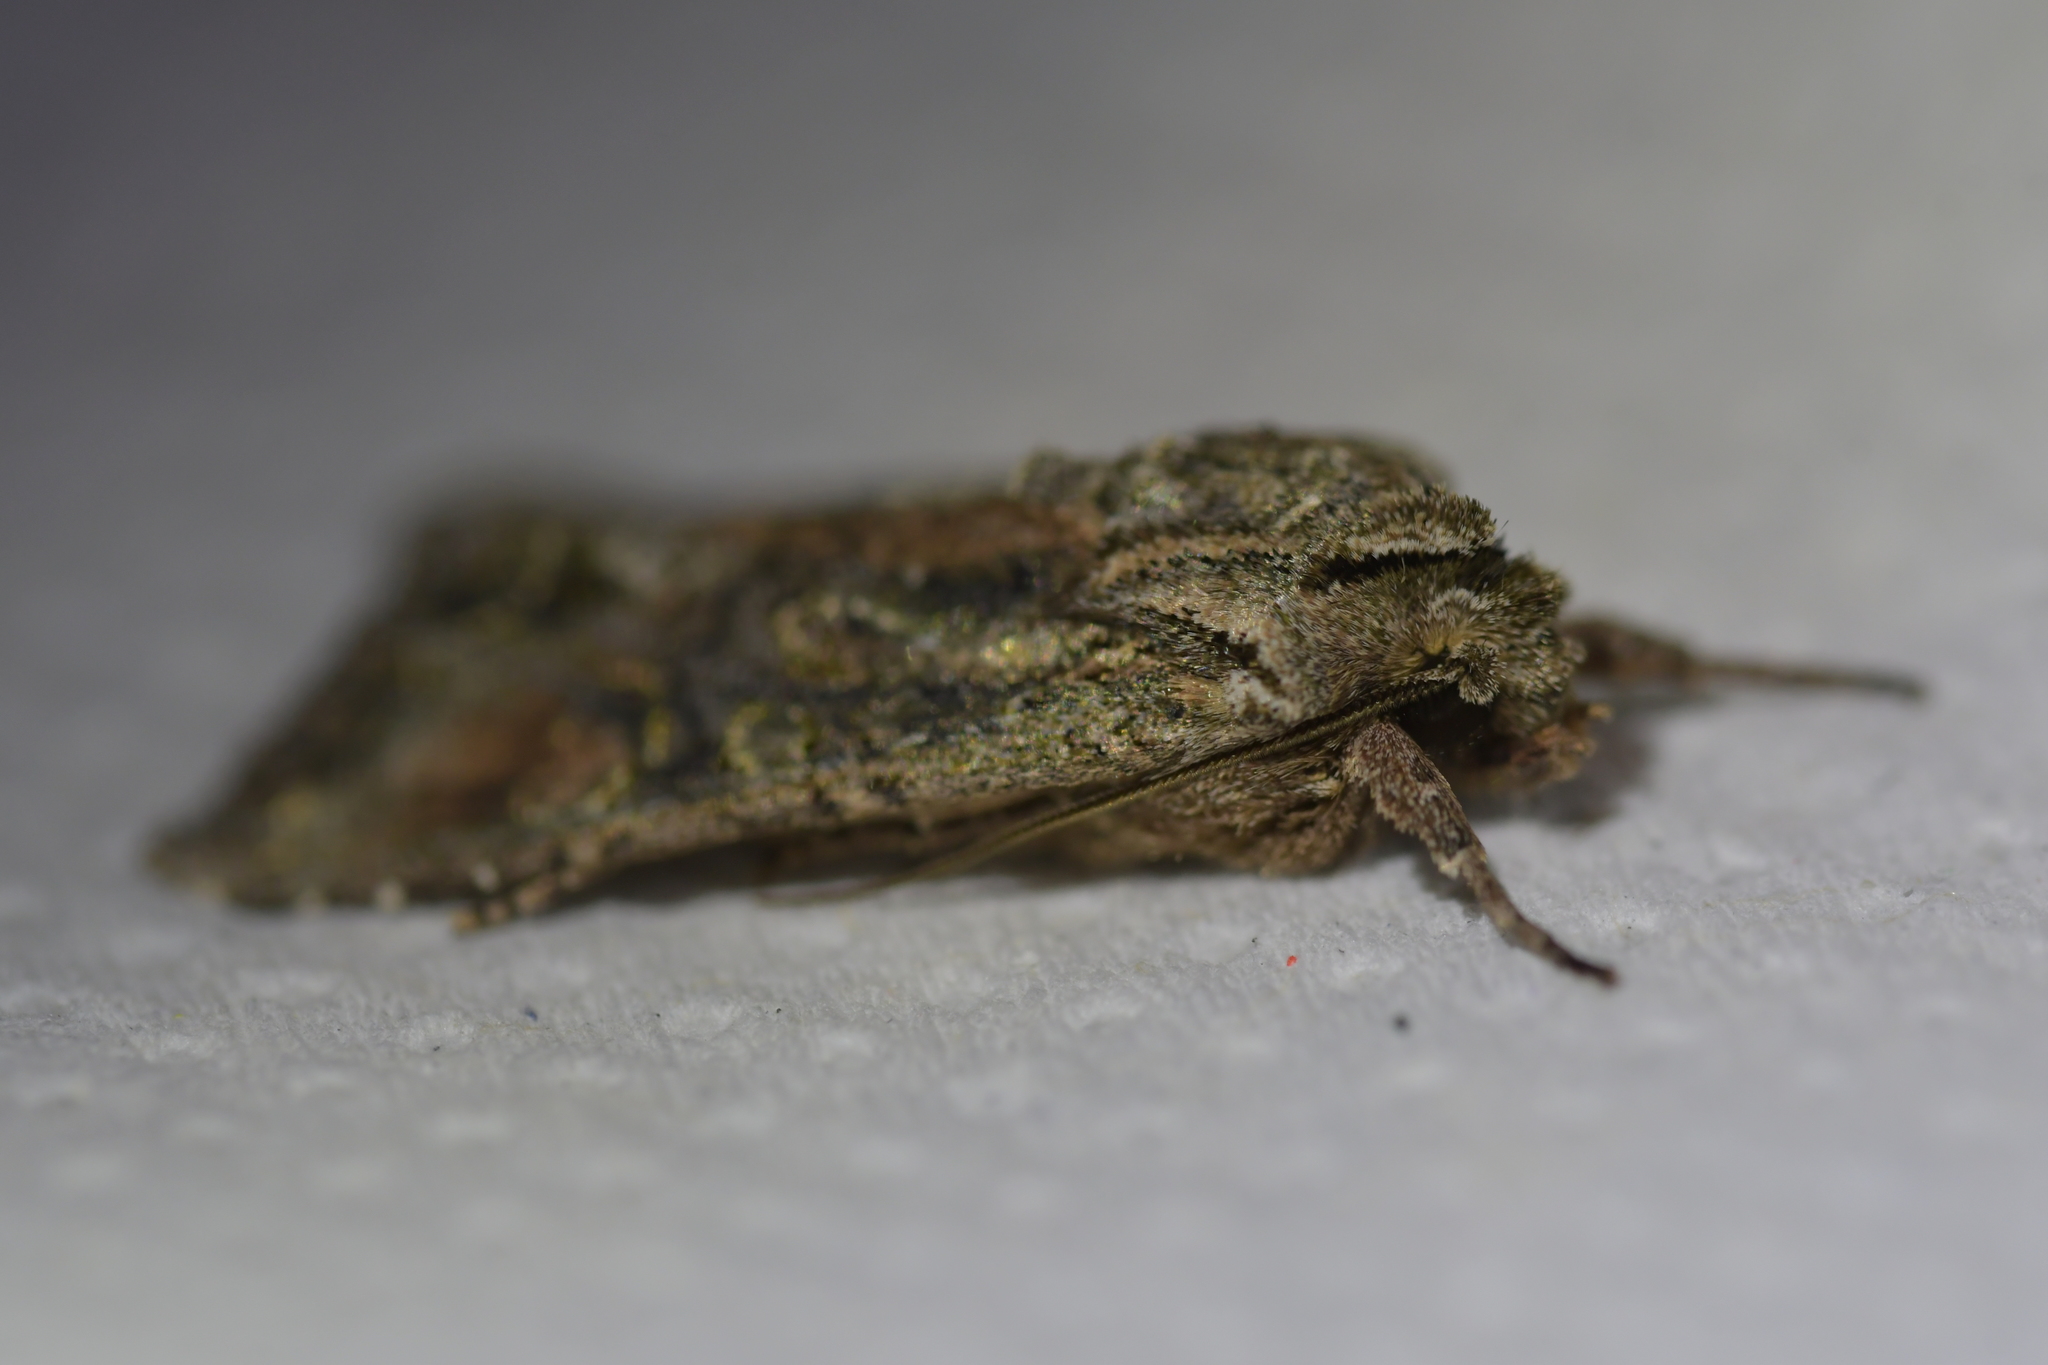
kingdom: Animalia
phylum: Arthropoda
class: Insecta
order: Lepidoptera
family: Noctuidae
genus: Ichneutica
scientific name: Ichneutica mutans
